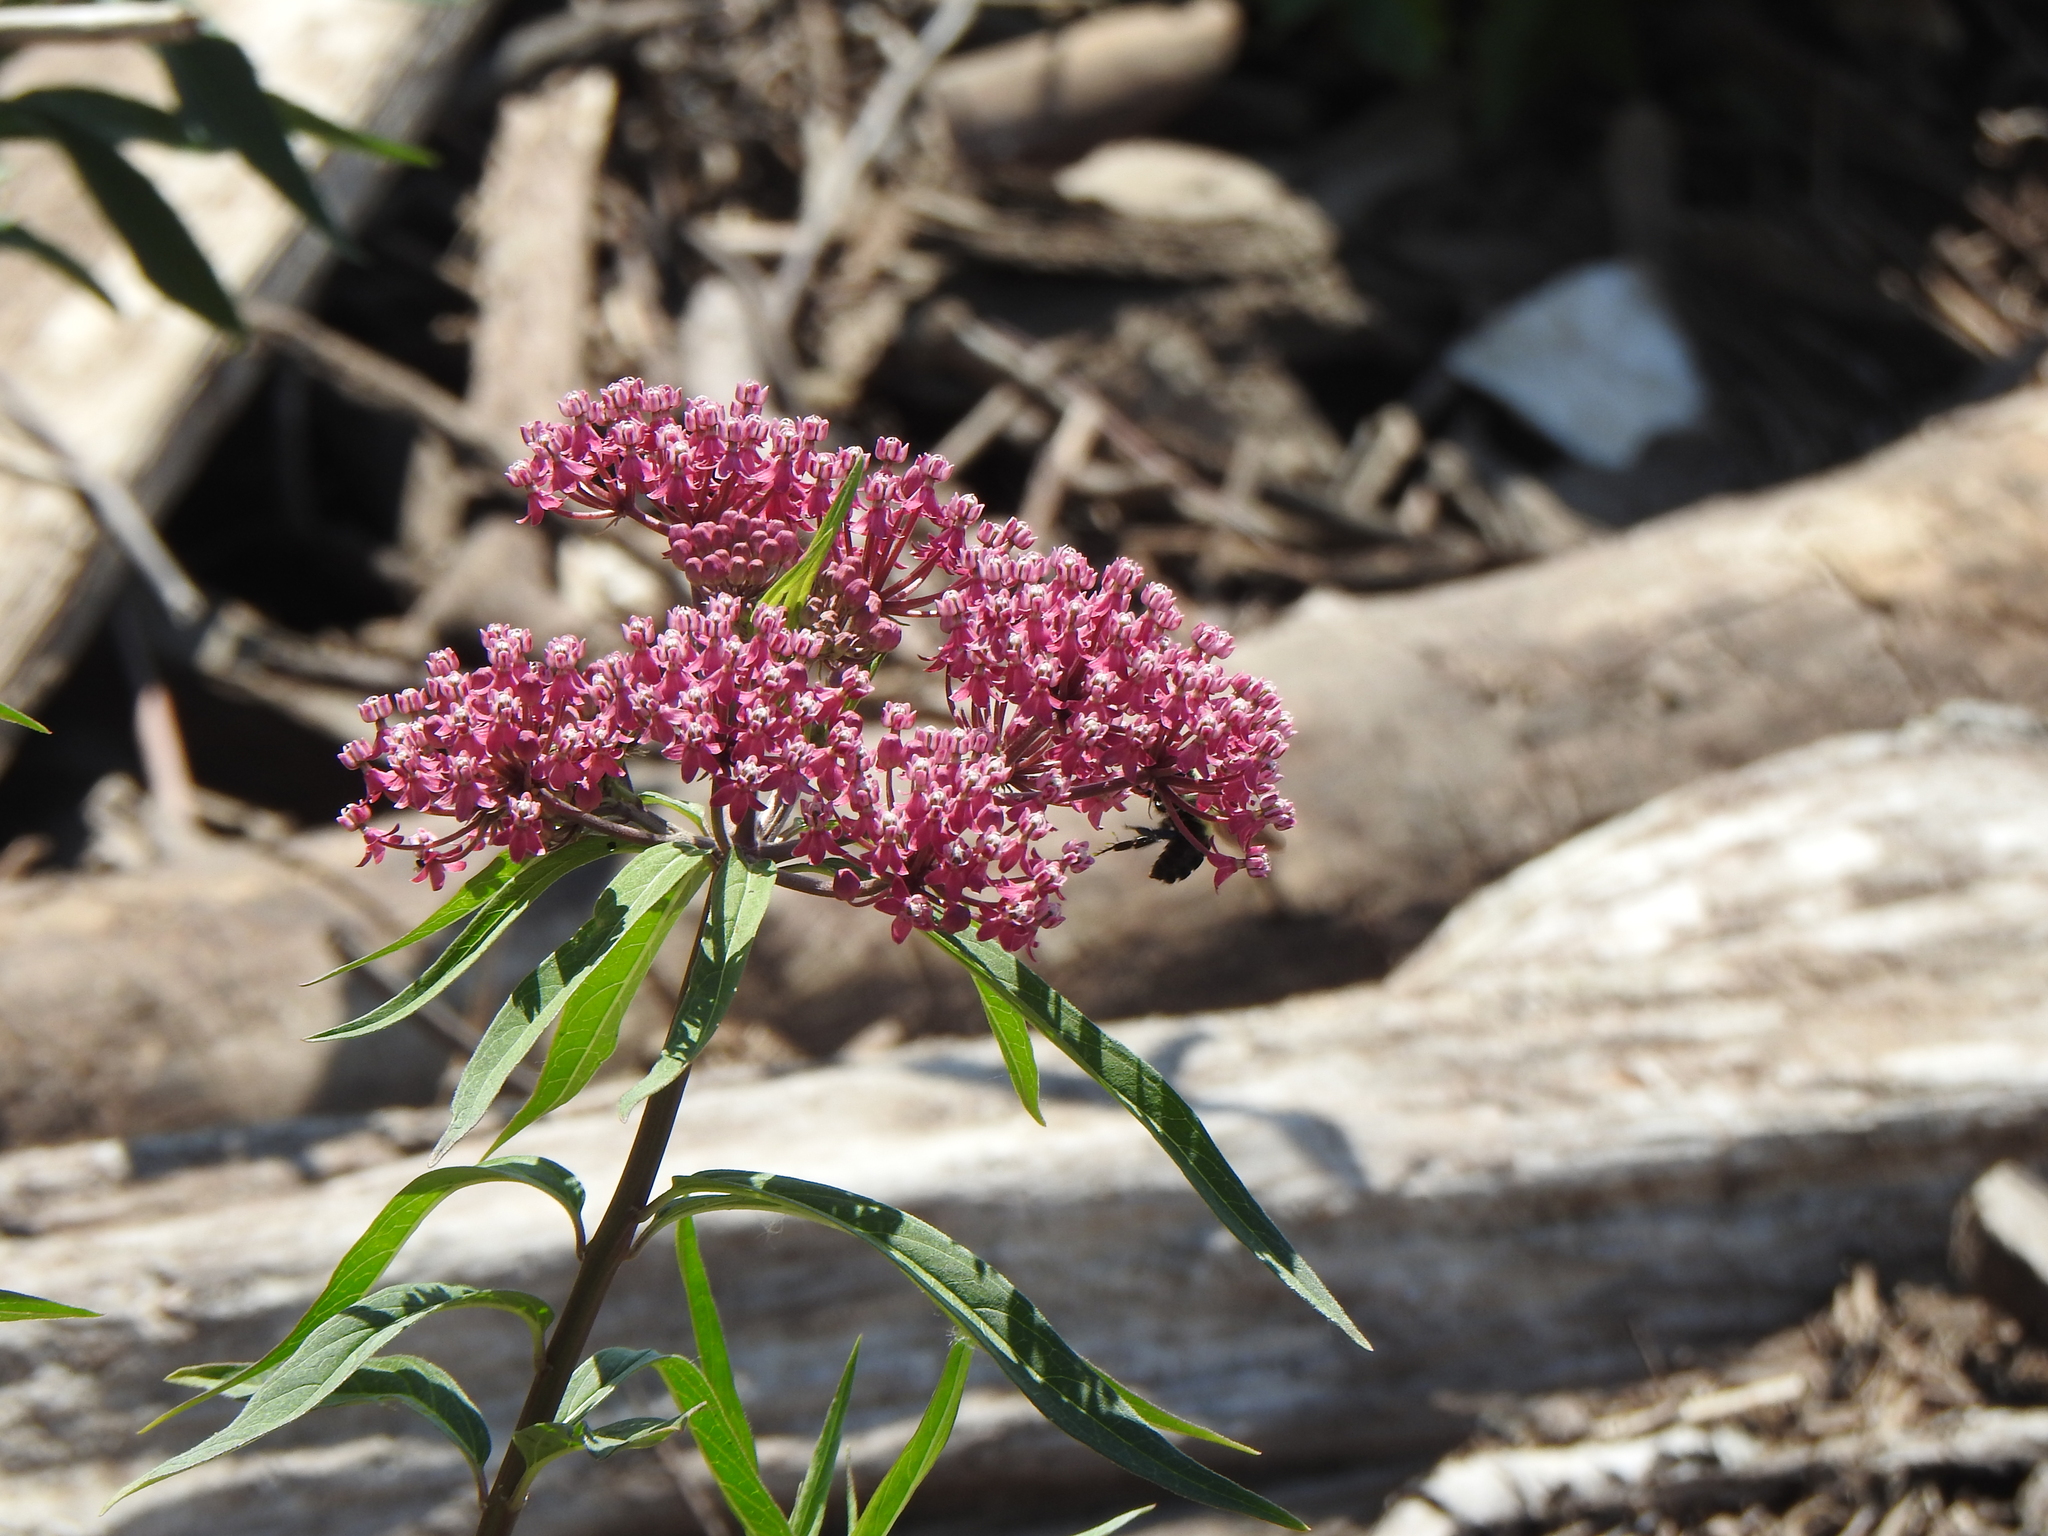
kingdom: Plantae
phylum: Tracheophyta
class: Magnoliopsida
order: Gentianales
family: Apocynaceae
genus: Asclepias
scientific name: Asclepias incarnata
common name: Swamp milkweed
